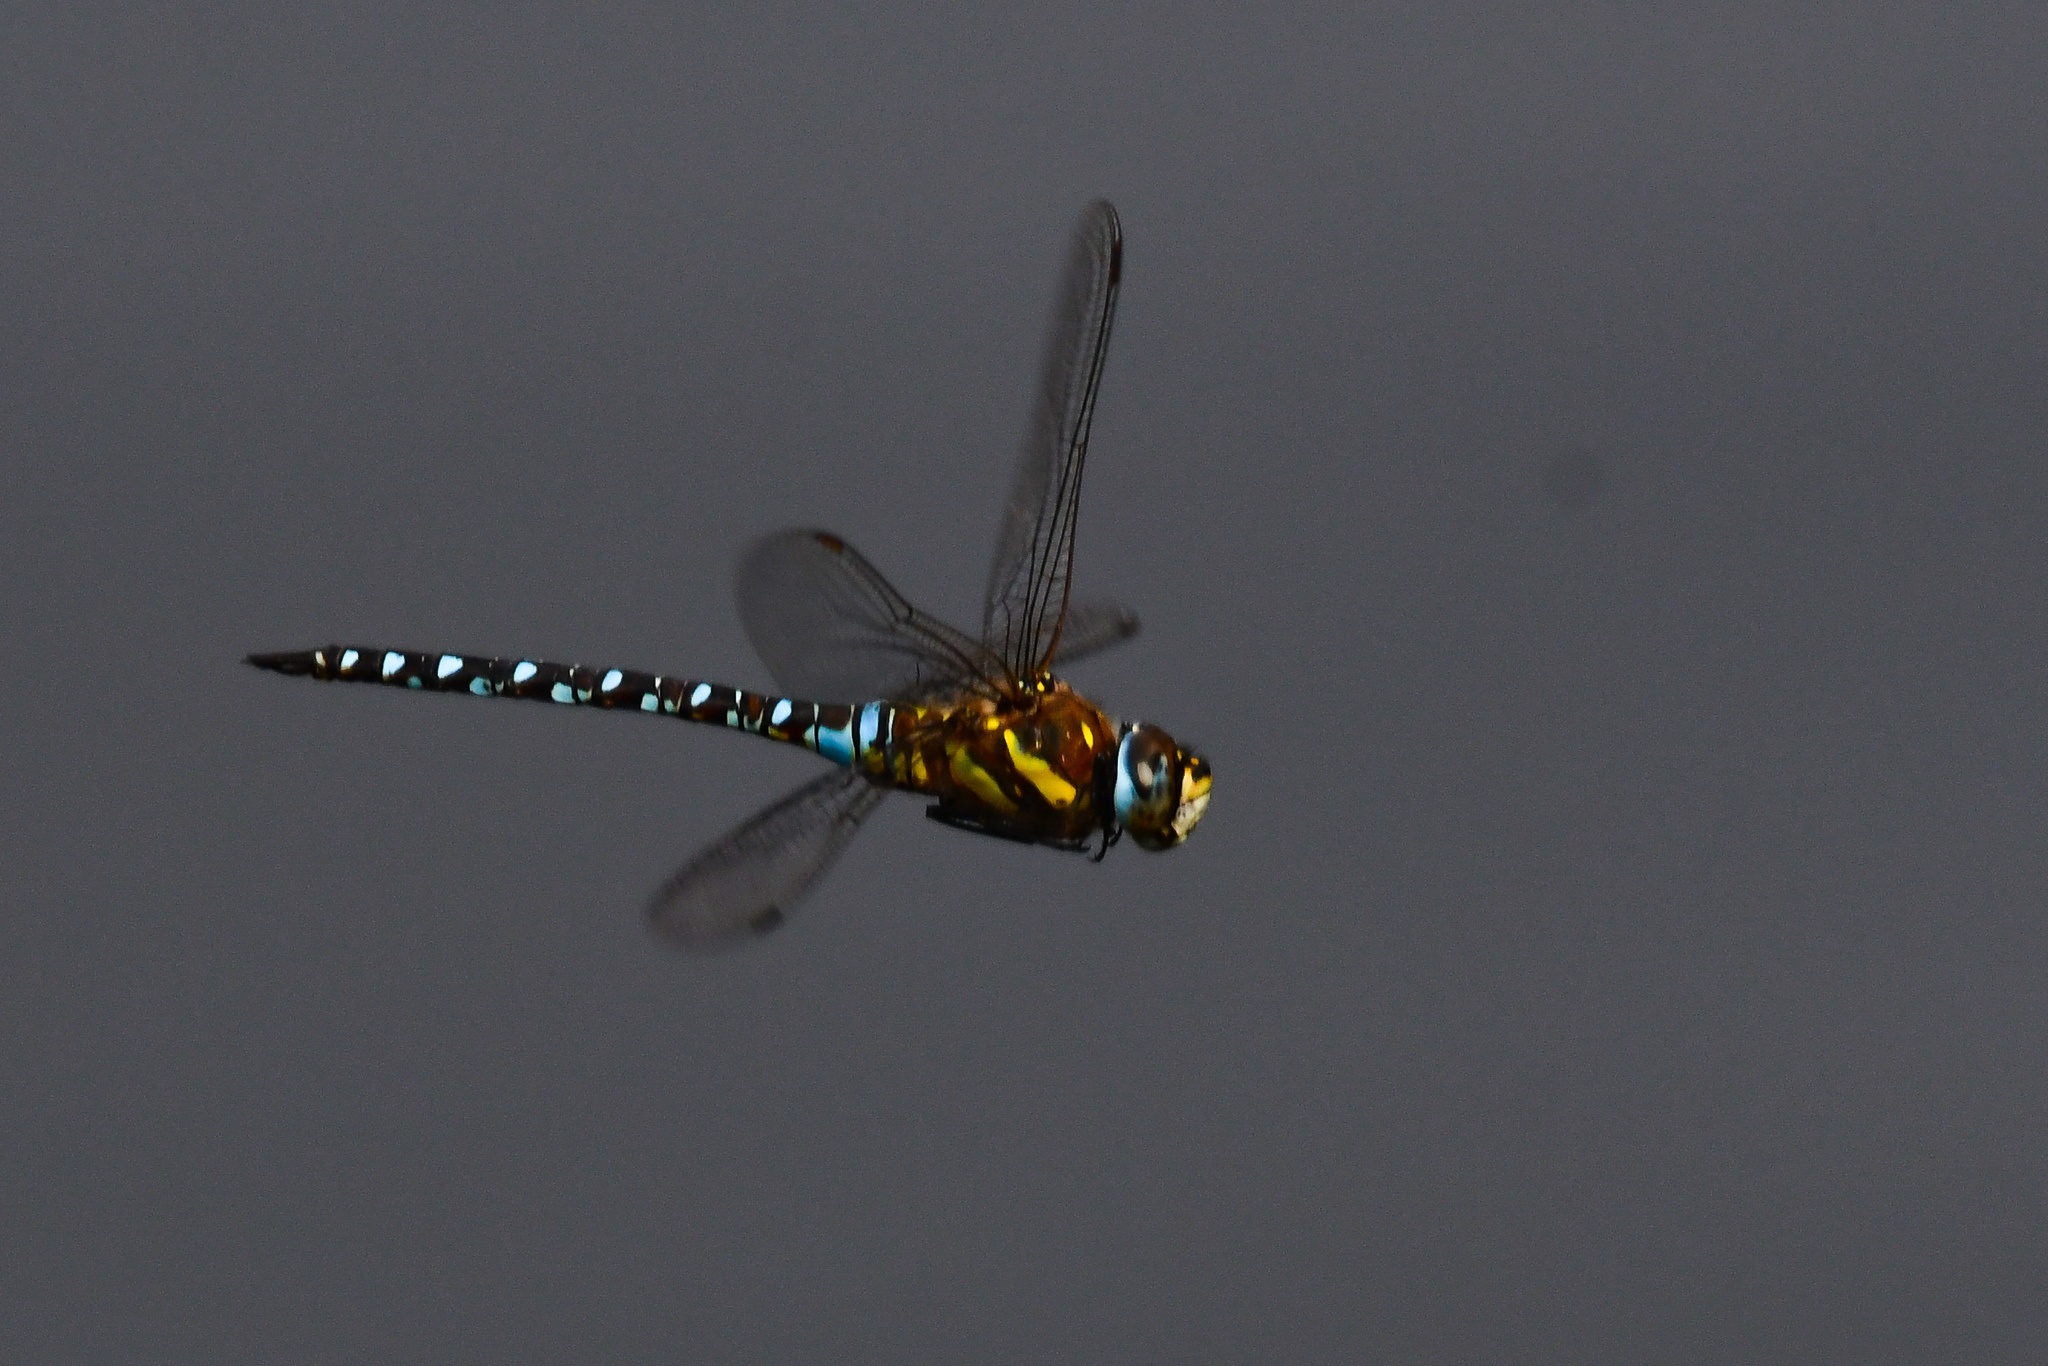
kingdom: Animalia
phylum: Arthropoda
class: Insecta
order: Odonata
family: Aeshnidae
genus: Aeshna
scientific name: Aeshna mixta
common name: Migrant hawker
